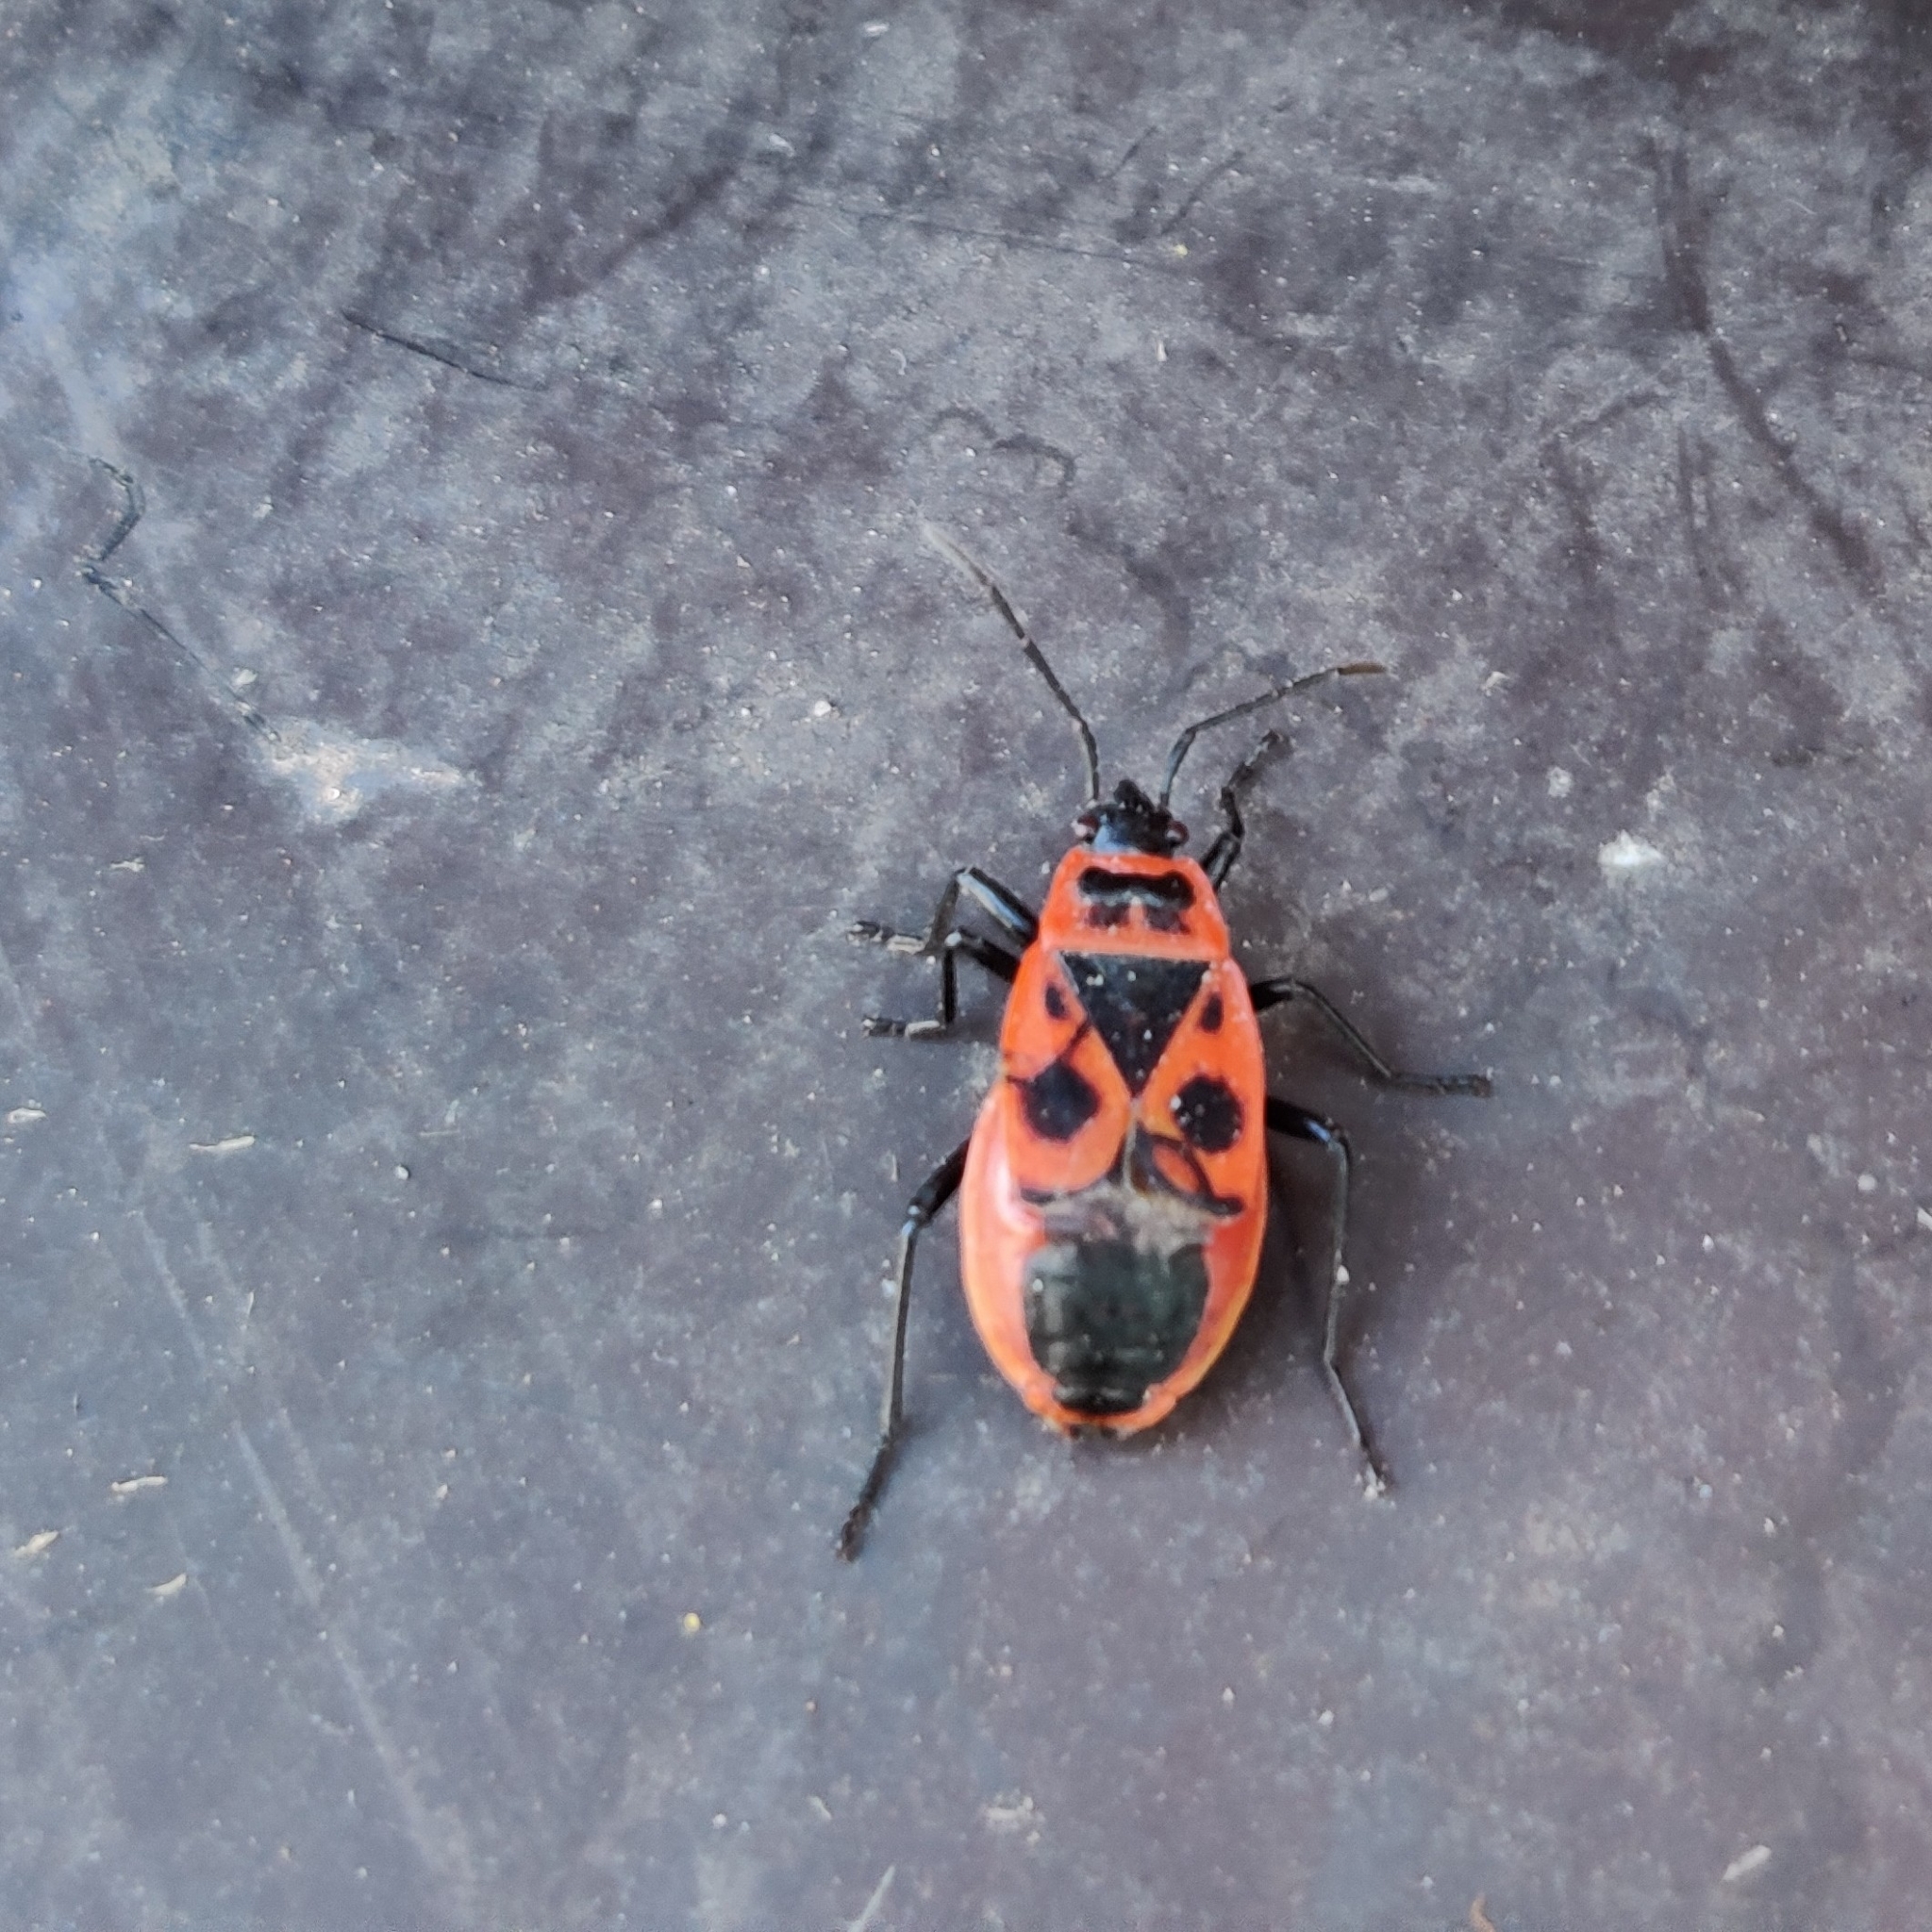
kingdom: Animalia
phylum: Arthropoda
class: Insecta
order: Hemiptera
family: Pyrrhocoridae
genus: Pyrrhocoris
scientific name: Pyrrhocoris apterus
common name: Firebug
